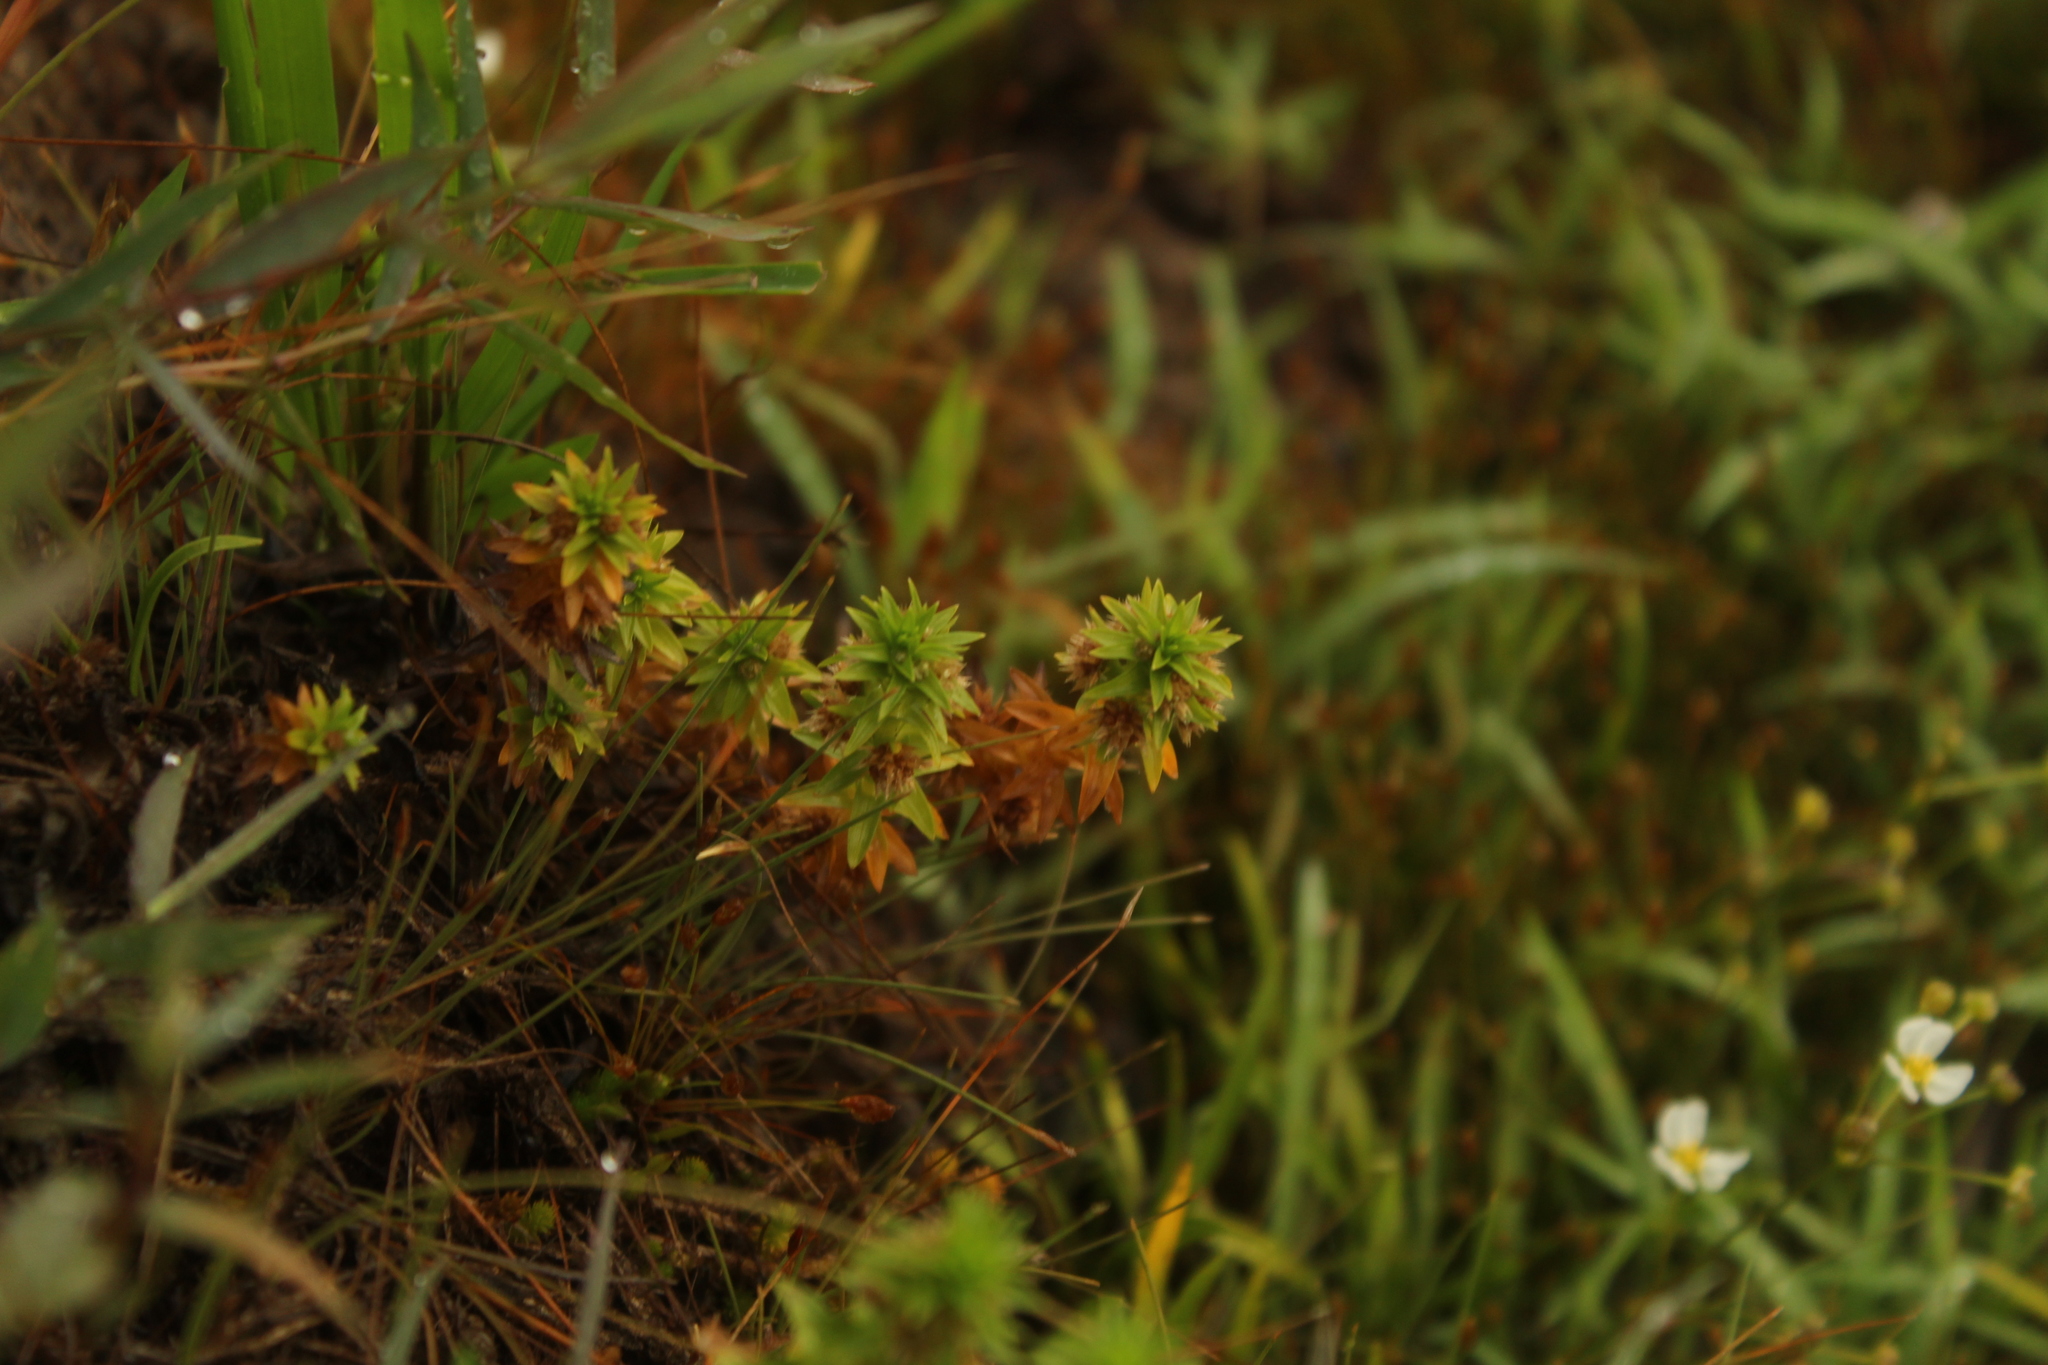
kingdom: Plantae
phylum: Tracheophyta
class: Liliopsida
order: Poales
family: Eriocaulaceae
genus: Paepalanthus
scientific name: Paepalanthus fluviatilis
